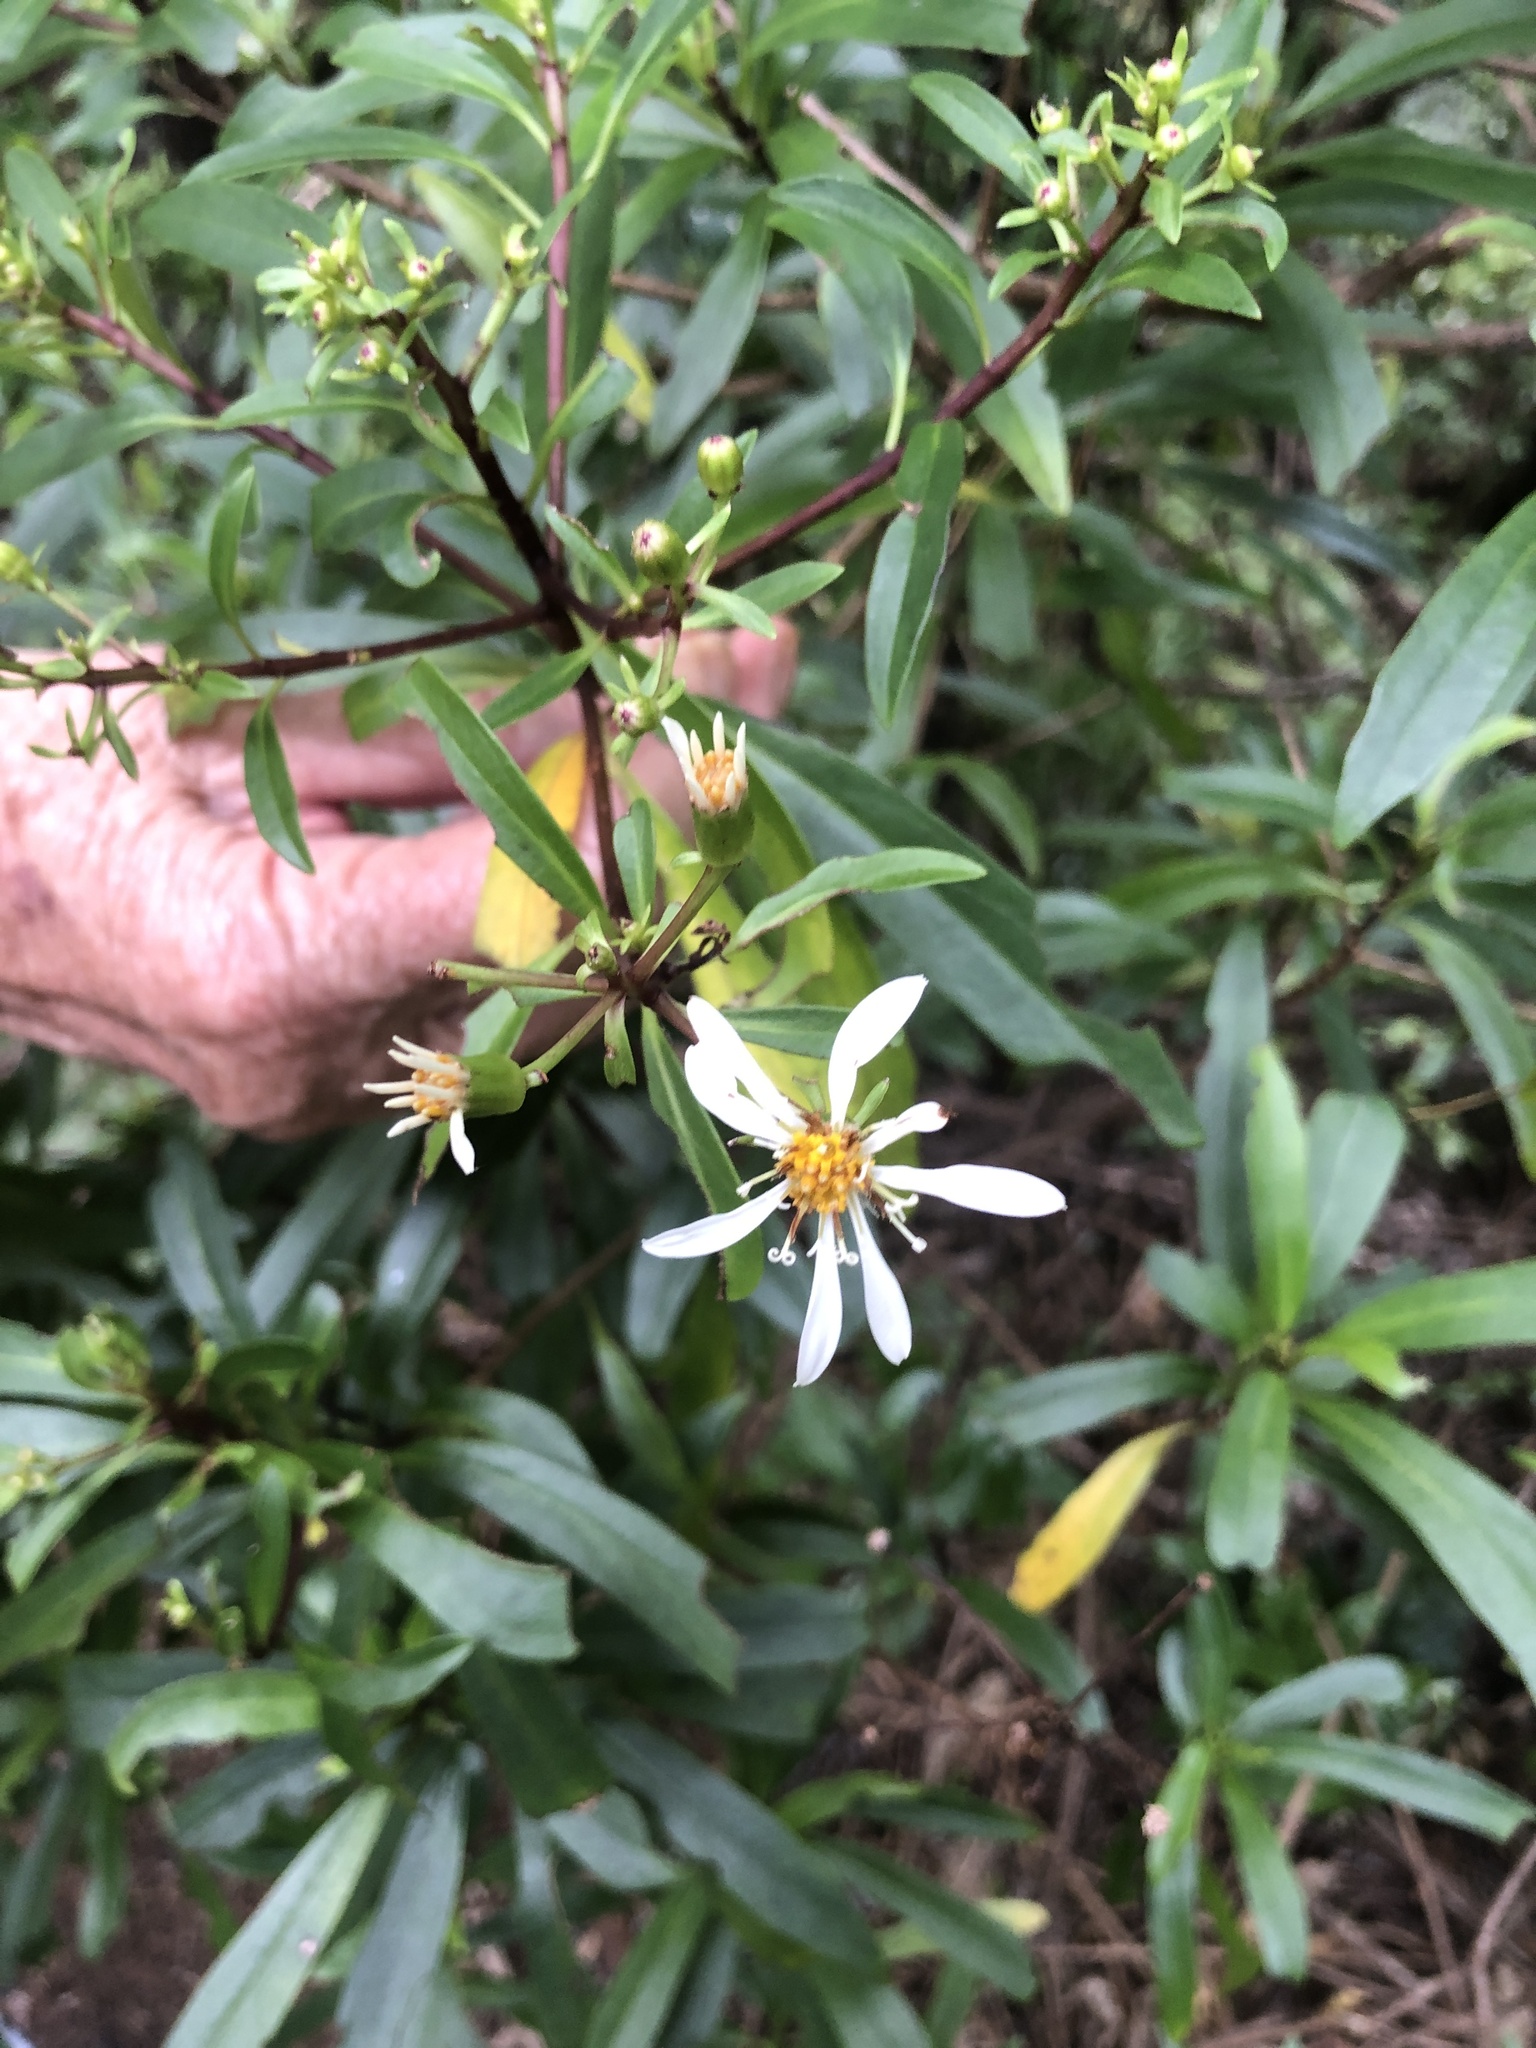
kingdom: Plantae
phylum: Tracheophyta
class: Magnoliopsida
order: Asterales
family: Asteraceae
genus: Brachyglottis
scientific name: Brachyglottis kirkii
